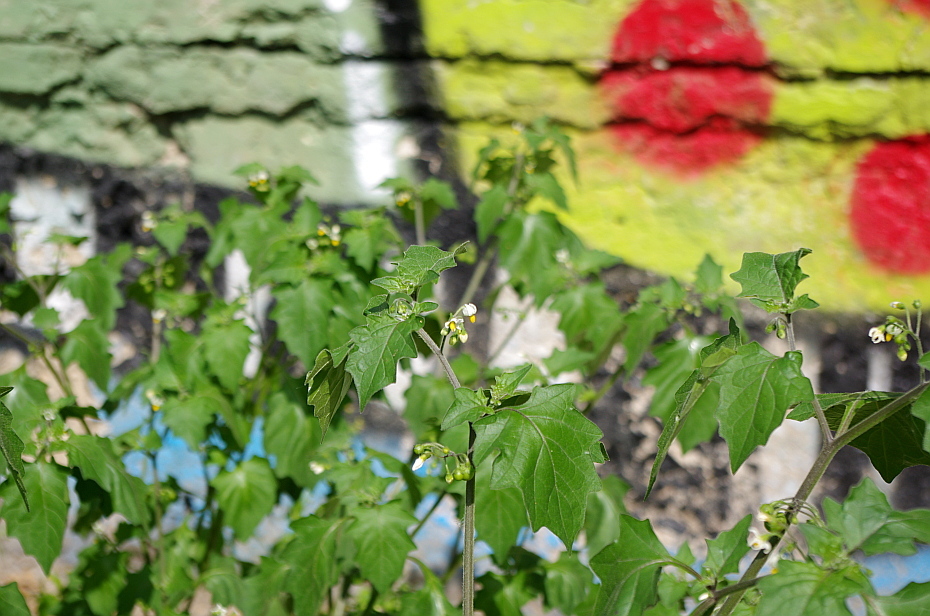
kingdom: Plantae
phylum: Tracheophyta
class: Magnoliopsida
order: Solanales
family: Solanaceae
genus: Solanum
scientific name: Solanum nigrum
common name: Black nightshade
